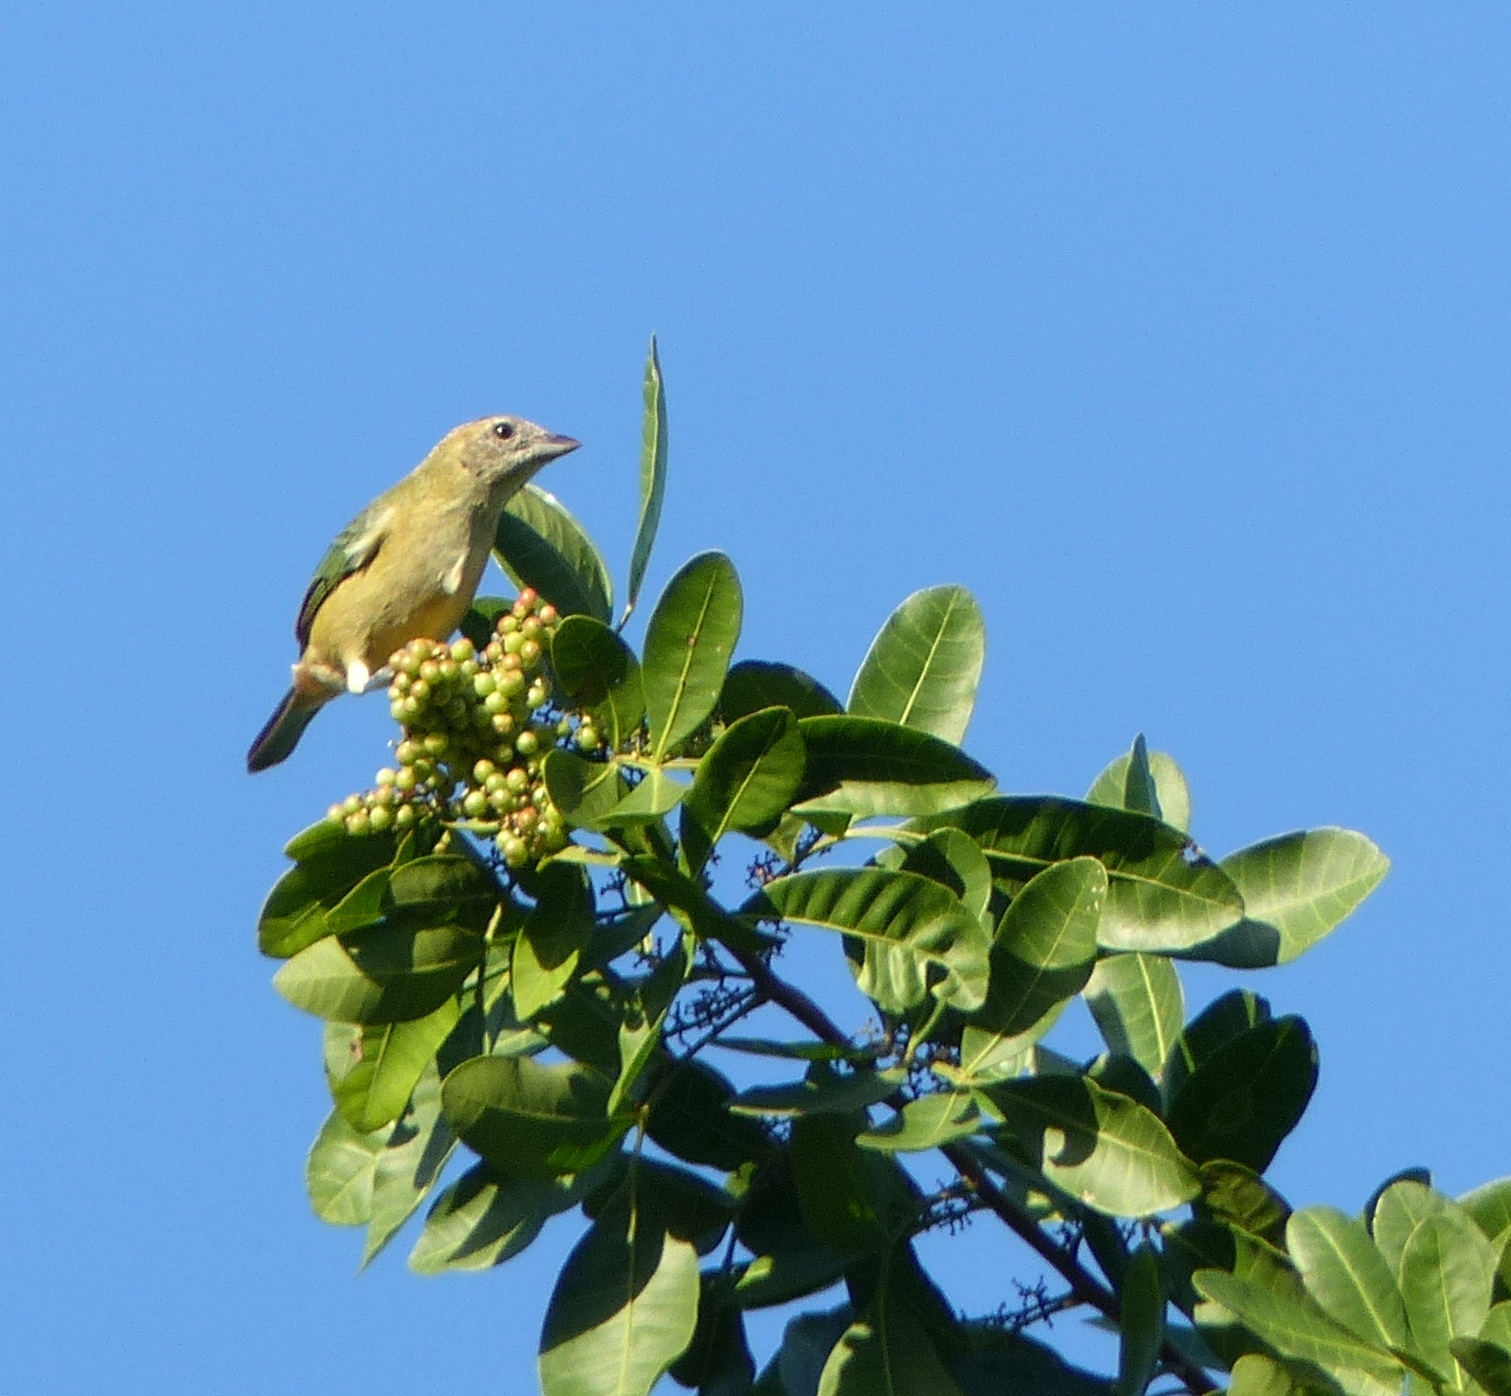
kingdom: Animalia
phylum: Chordata
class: Aves
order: Passeriformes
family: Thraupidae
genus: Stilpnia
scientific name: Stilpnia cayana
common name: Burnished-buff tanager
